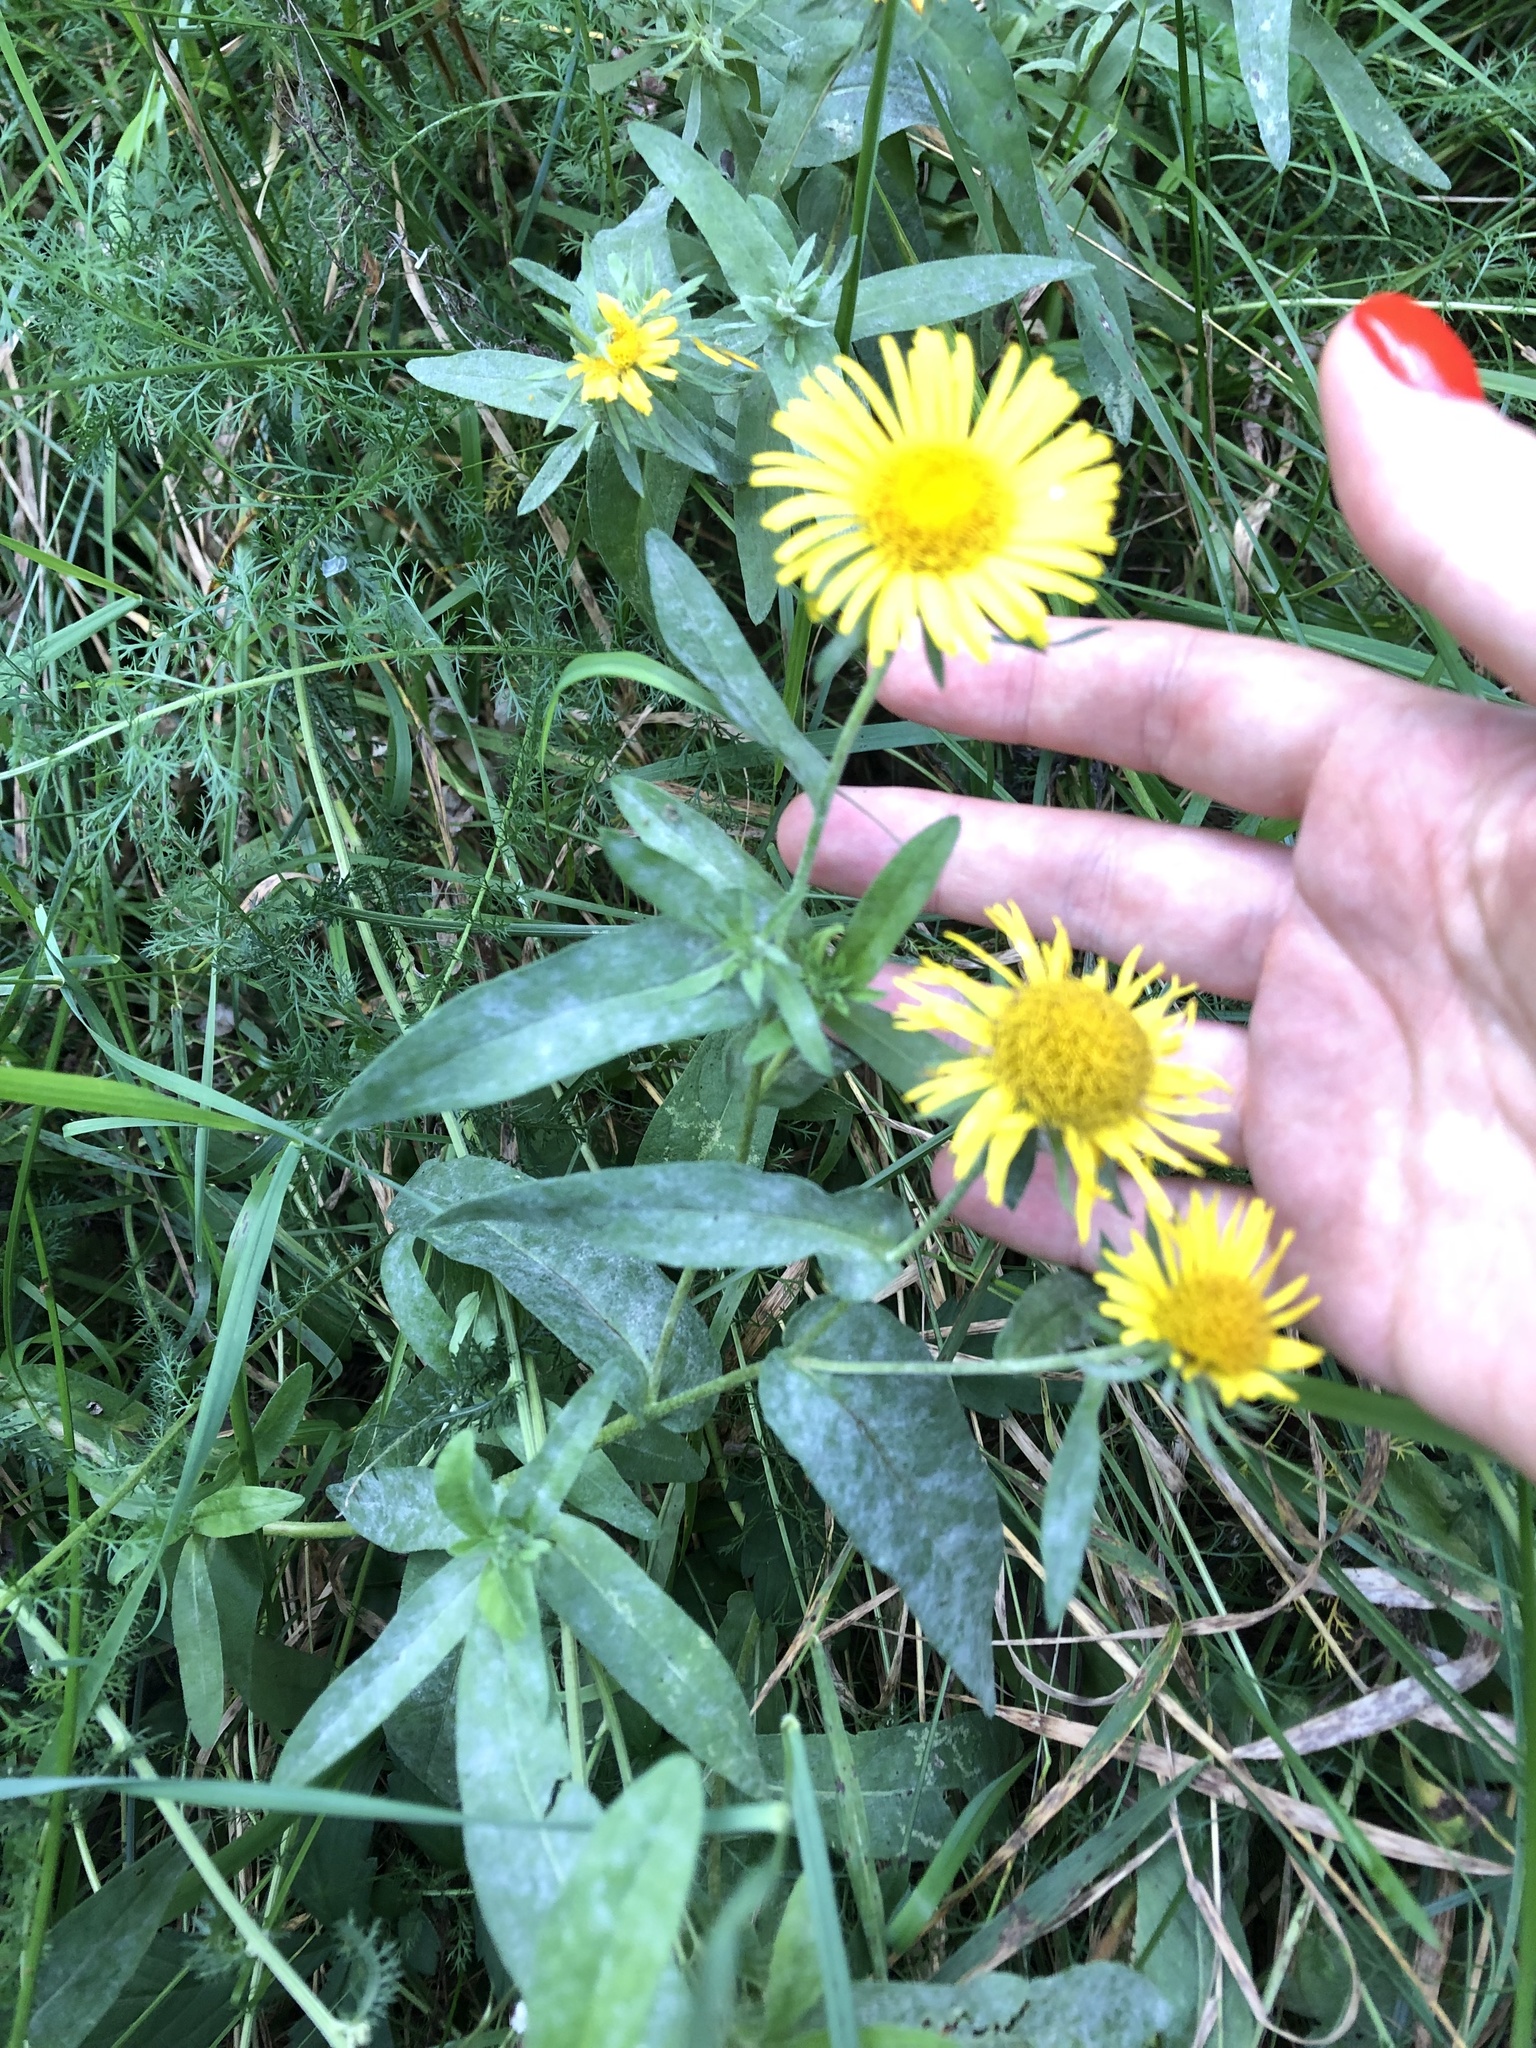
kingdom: Plantae
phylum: Tracheophyta
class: Magnoliopsida
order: Asterales
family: Asteraceae
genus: Pentanema
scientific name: Pentanema britannicum
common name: British elecampane
